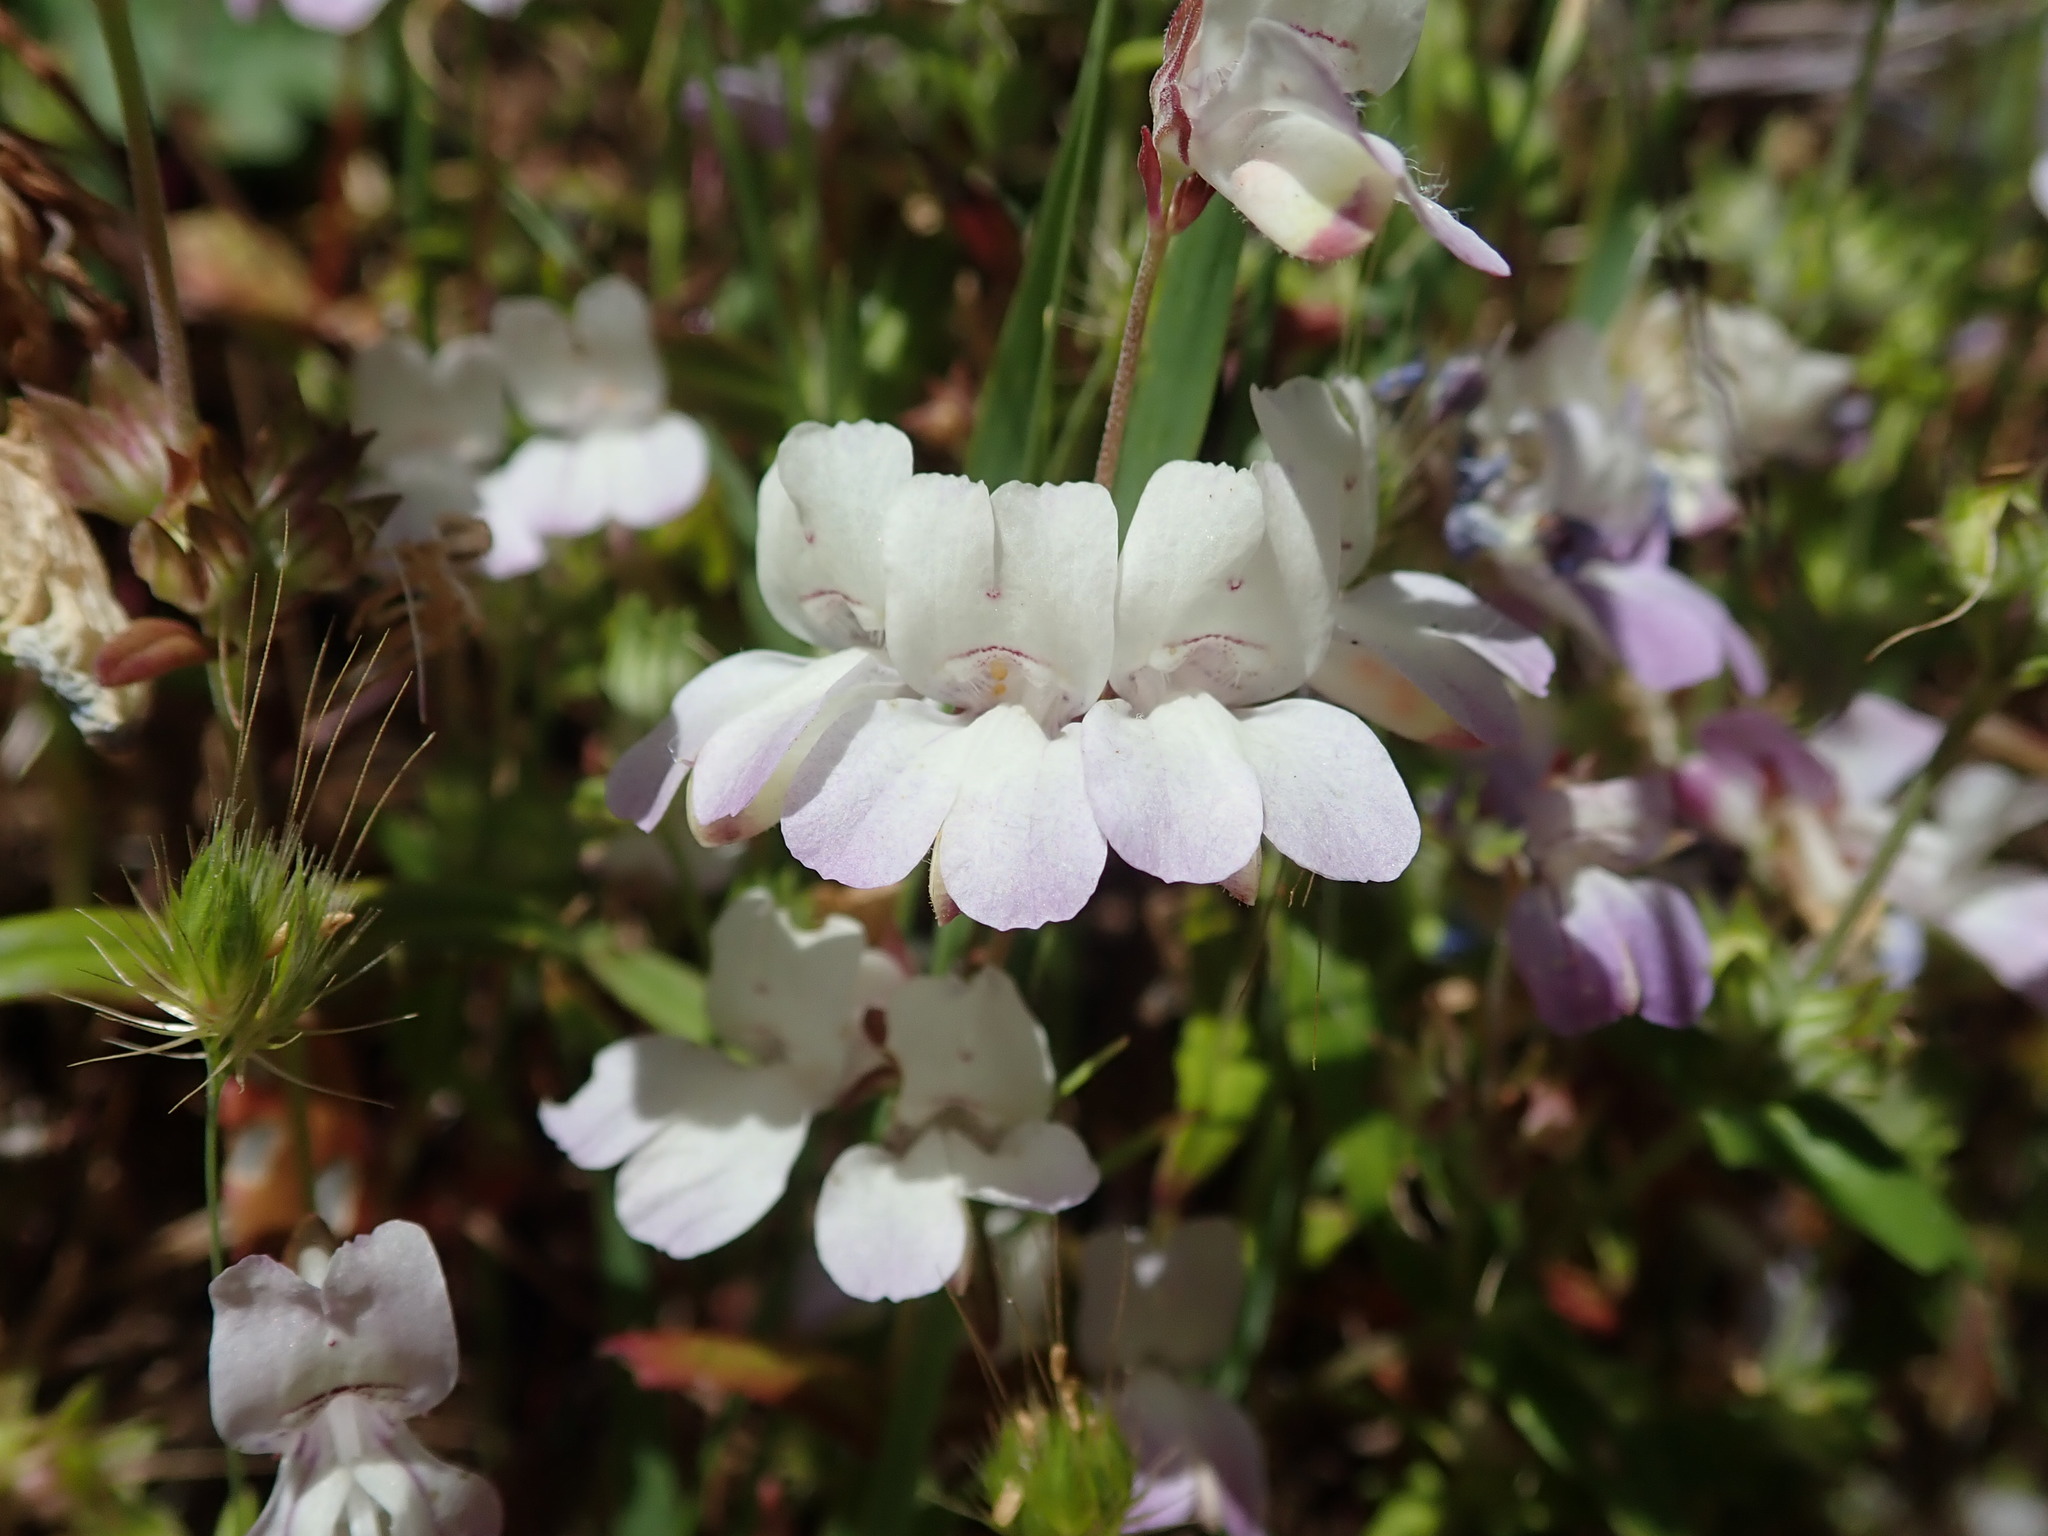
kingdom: Plantae
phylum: Tracheophyta
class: Magnoliopsida
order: Lamiales
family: Plantaginaceae
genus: Collinsia
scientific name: Collinsia heterophylla
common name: Chinese-houses
